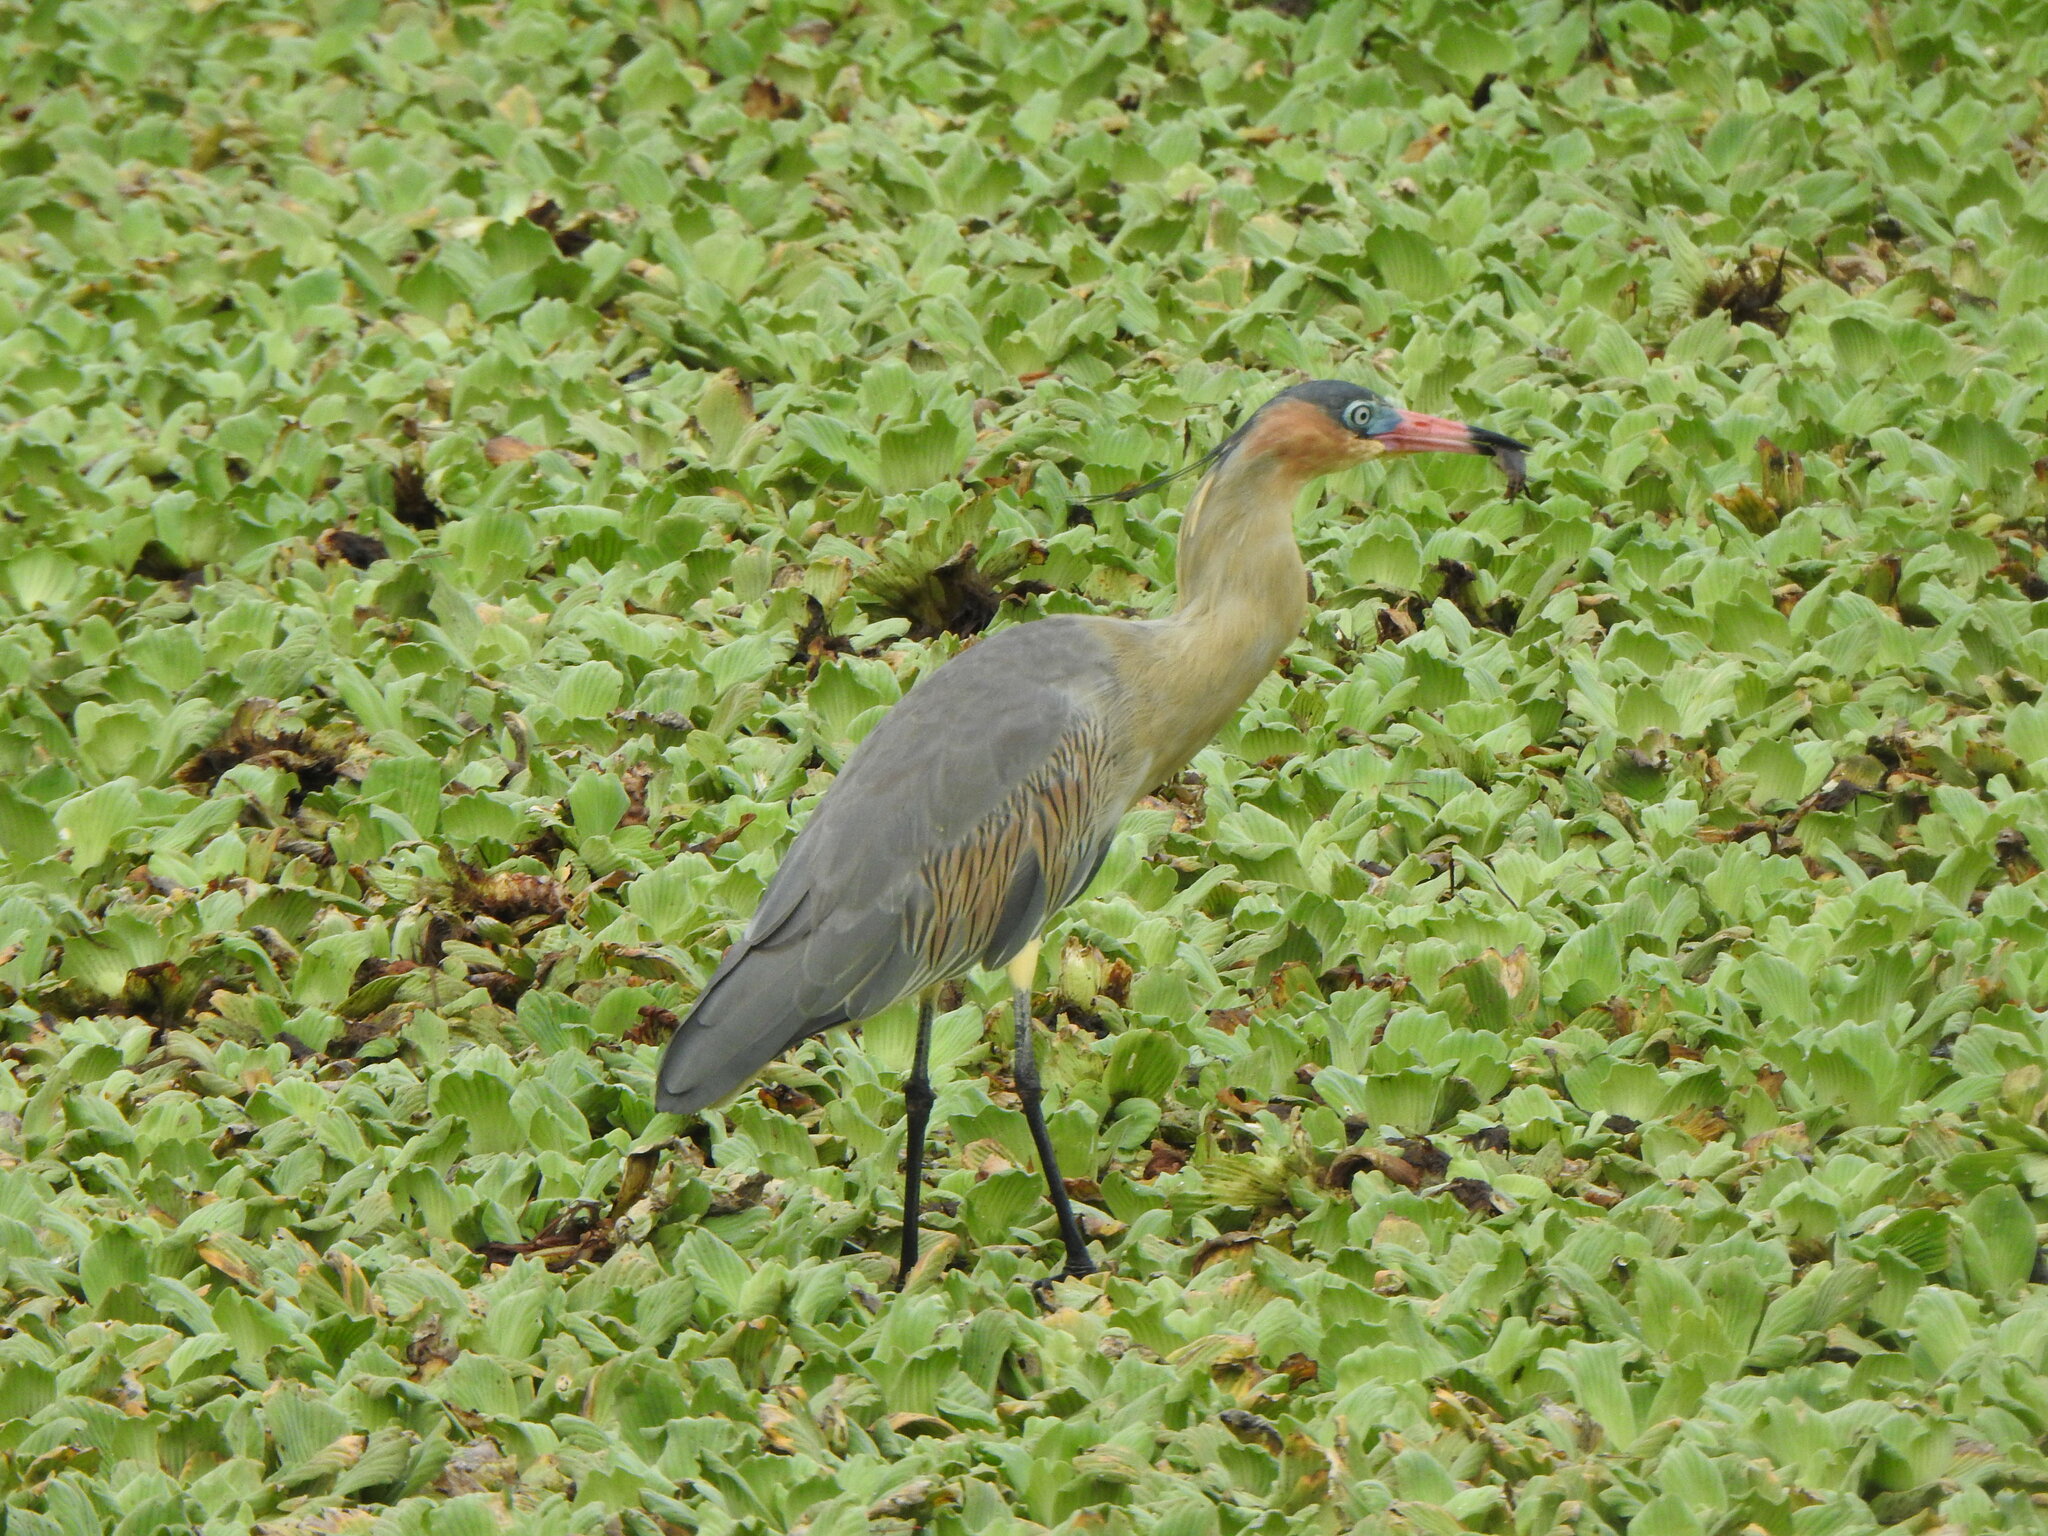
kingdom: Animalia
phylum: Chordata
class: Aves
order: Pelecaniformes
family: Ardeidae
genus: Syrigma
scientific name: Syrigma sibilatrix
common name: Whistling heron
